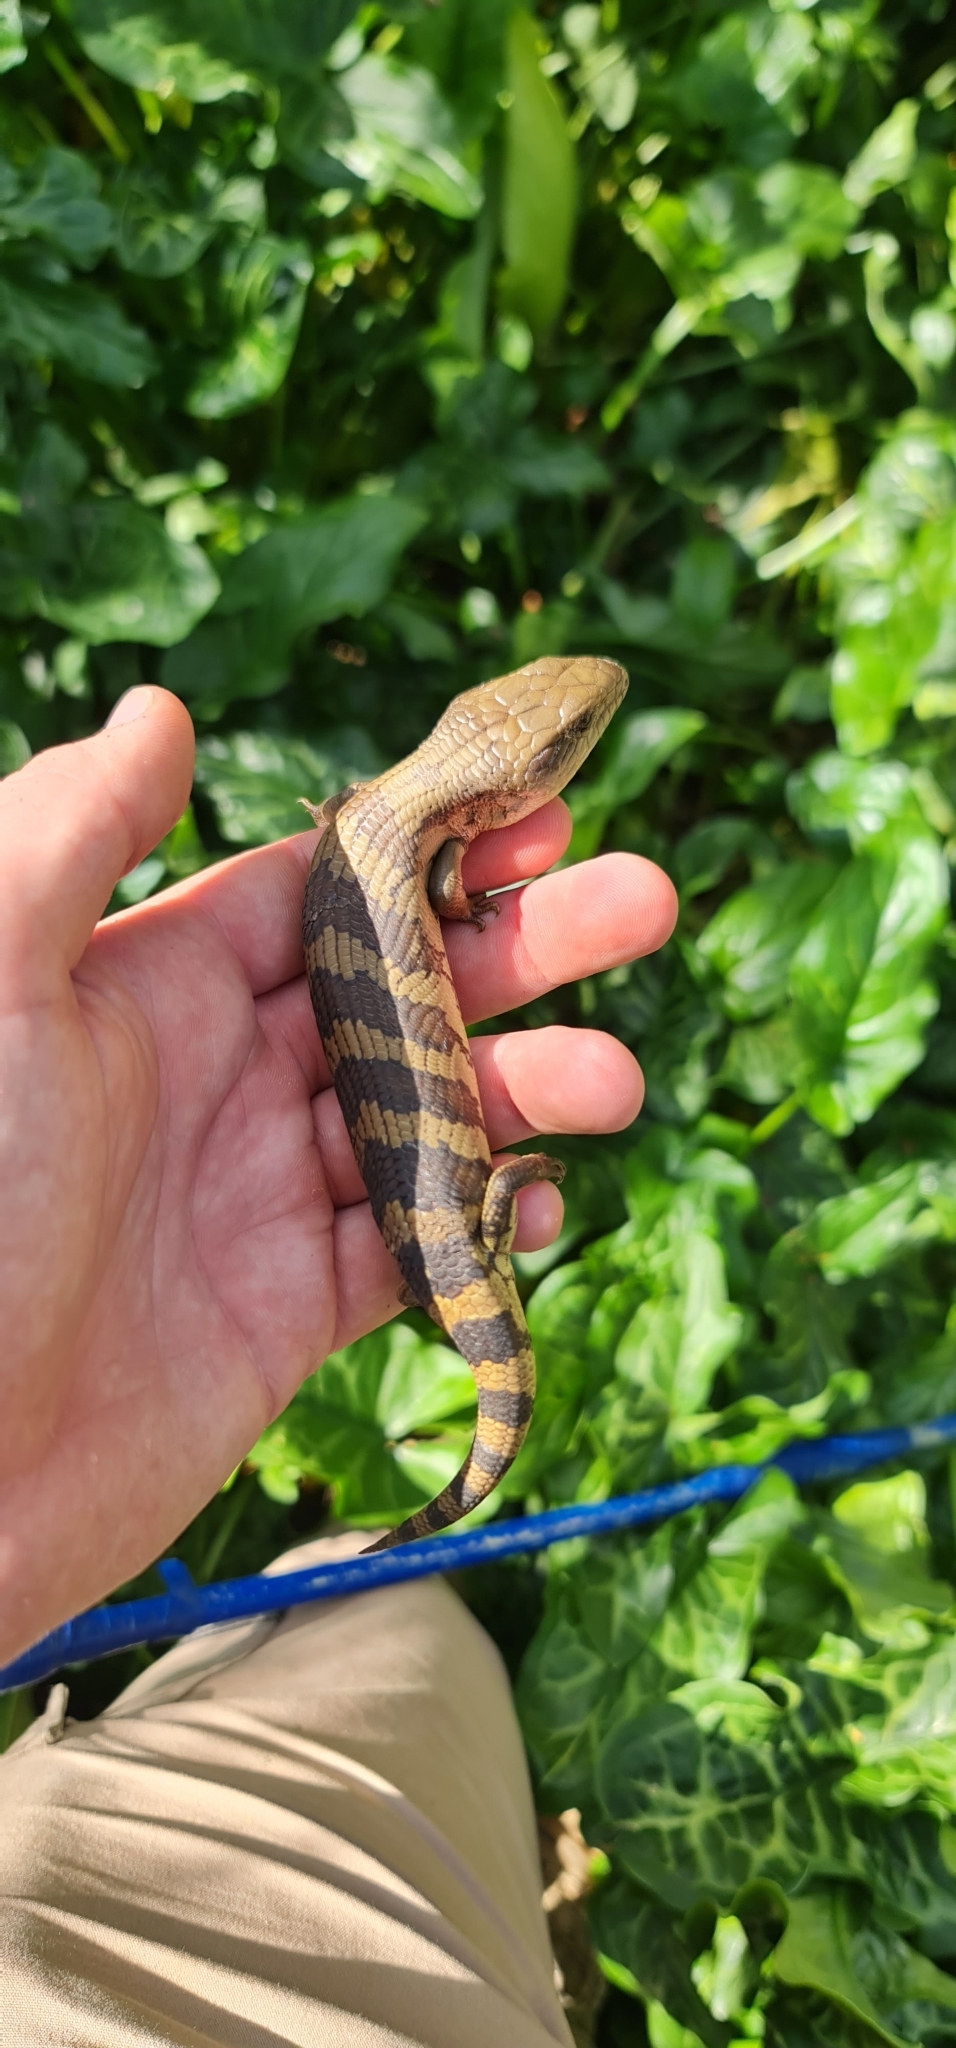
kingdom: Animalia
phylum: Chordata
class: Squamata
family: Scincidae
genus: Tiliqua
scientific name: Tiliqua scincoides
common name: Common bluetongue
